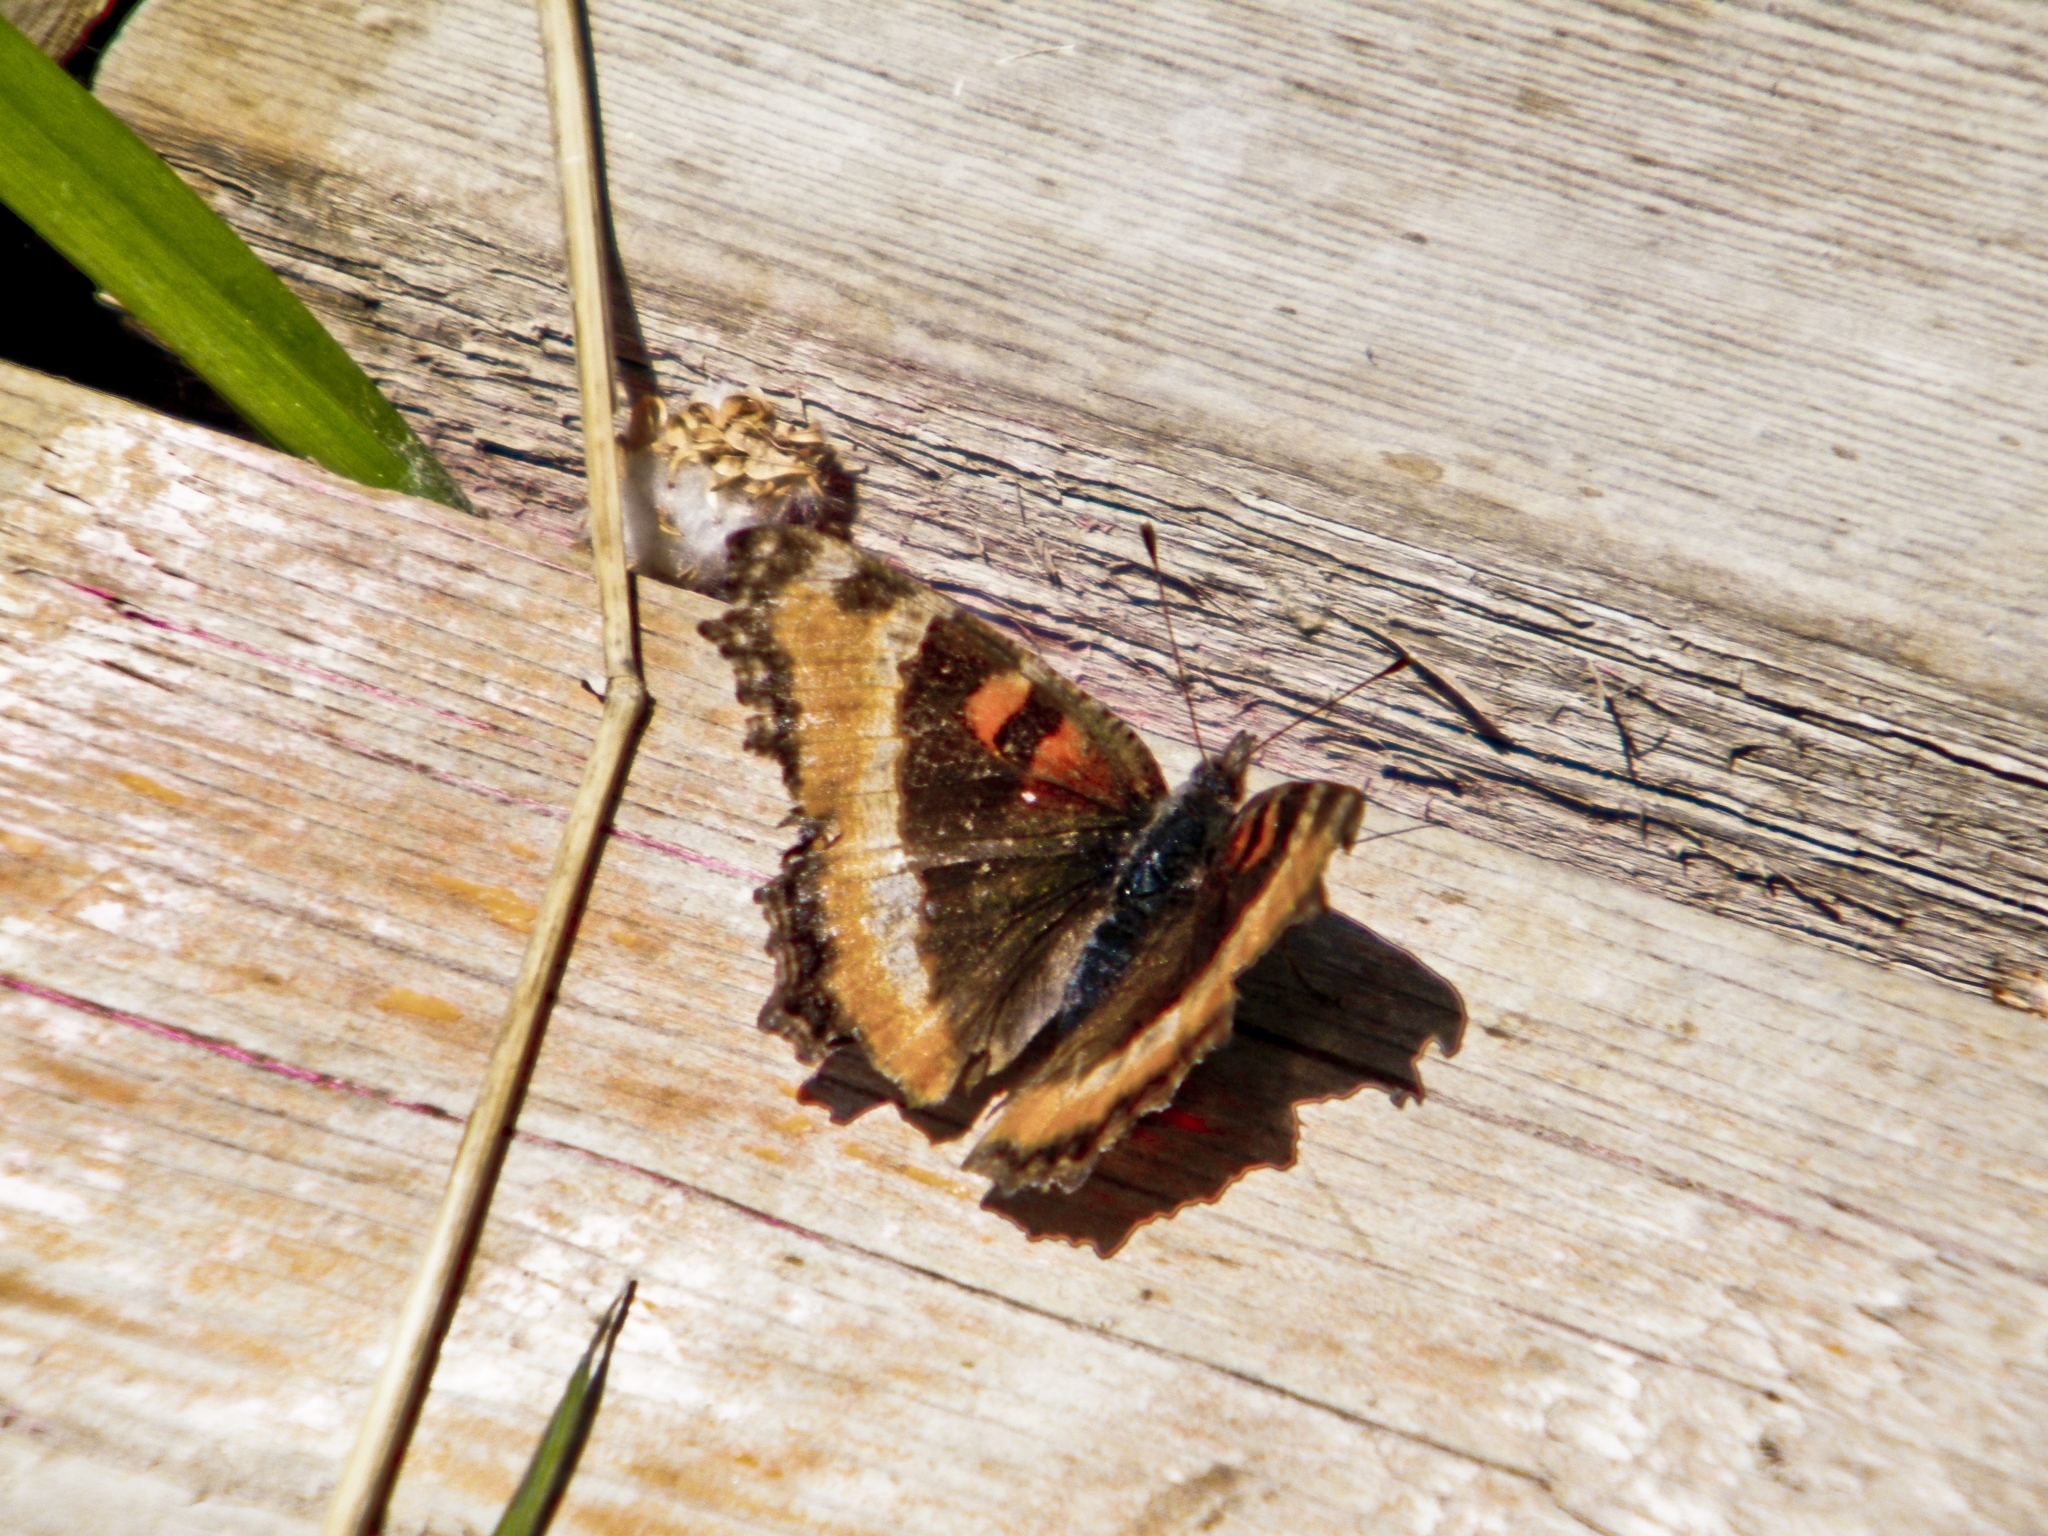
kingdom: Animalia
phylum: Arthropoda
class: Insecta
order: Lepidoptera
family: Nymphalidae
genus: Aglais
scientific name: Aglais milberti
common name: Milbert's tortoiseshell
